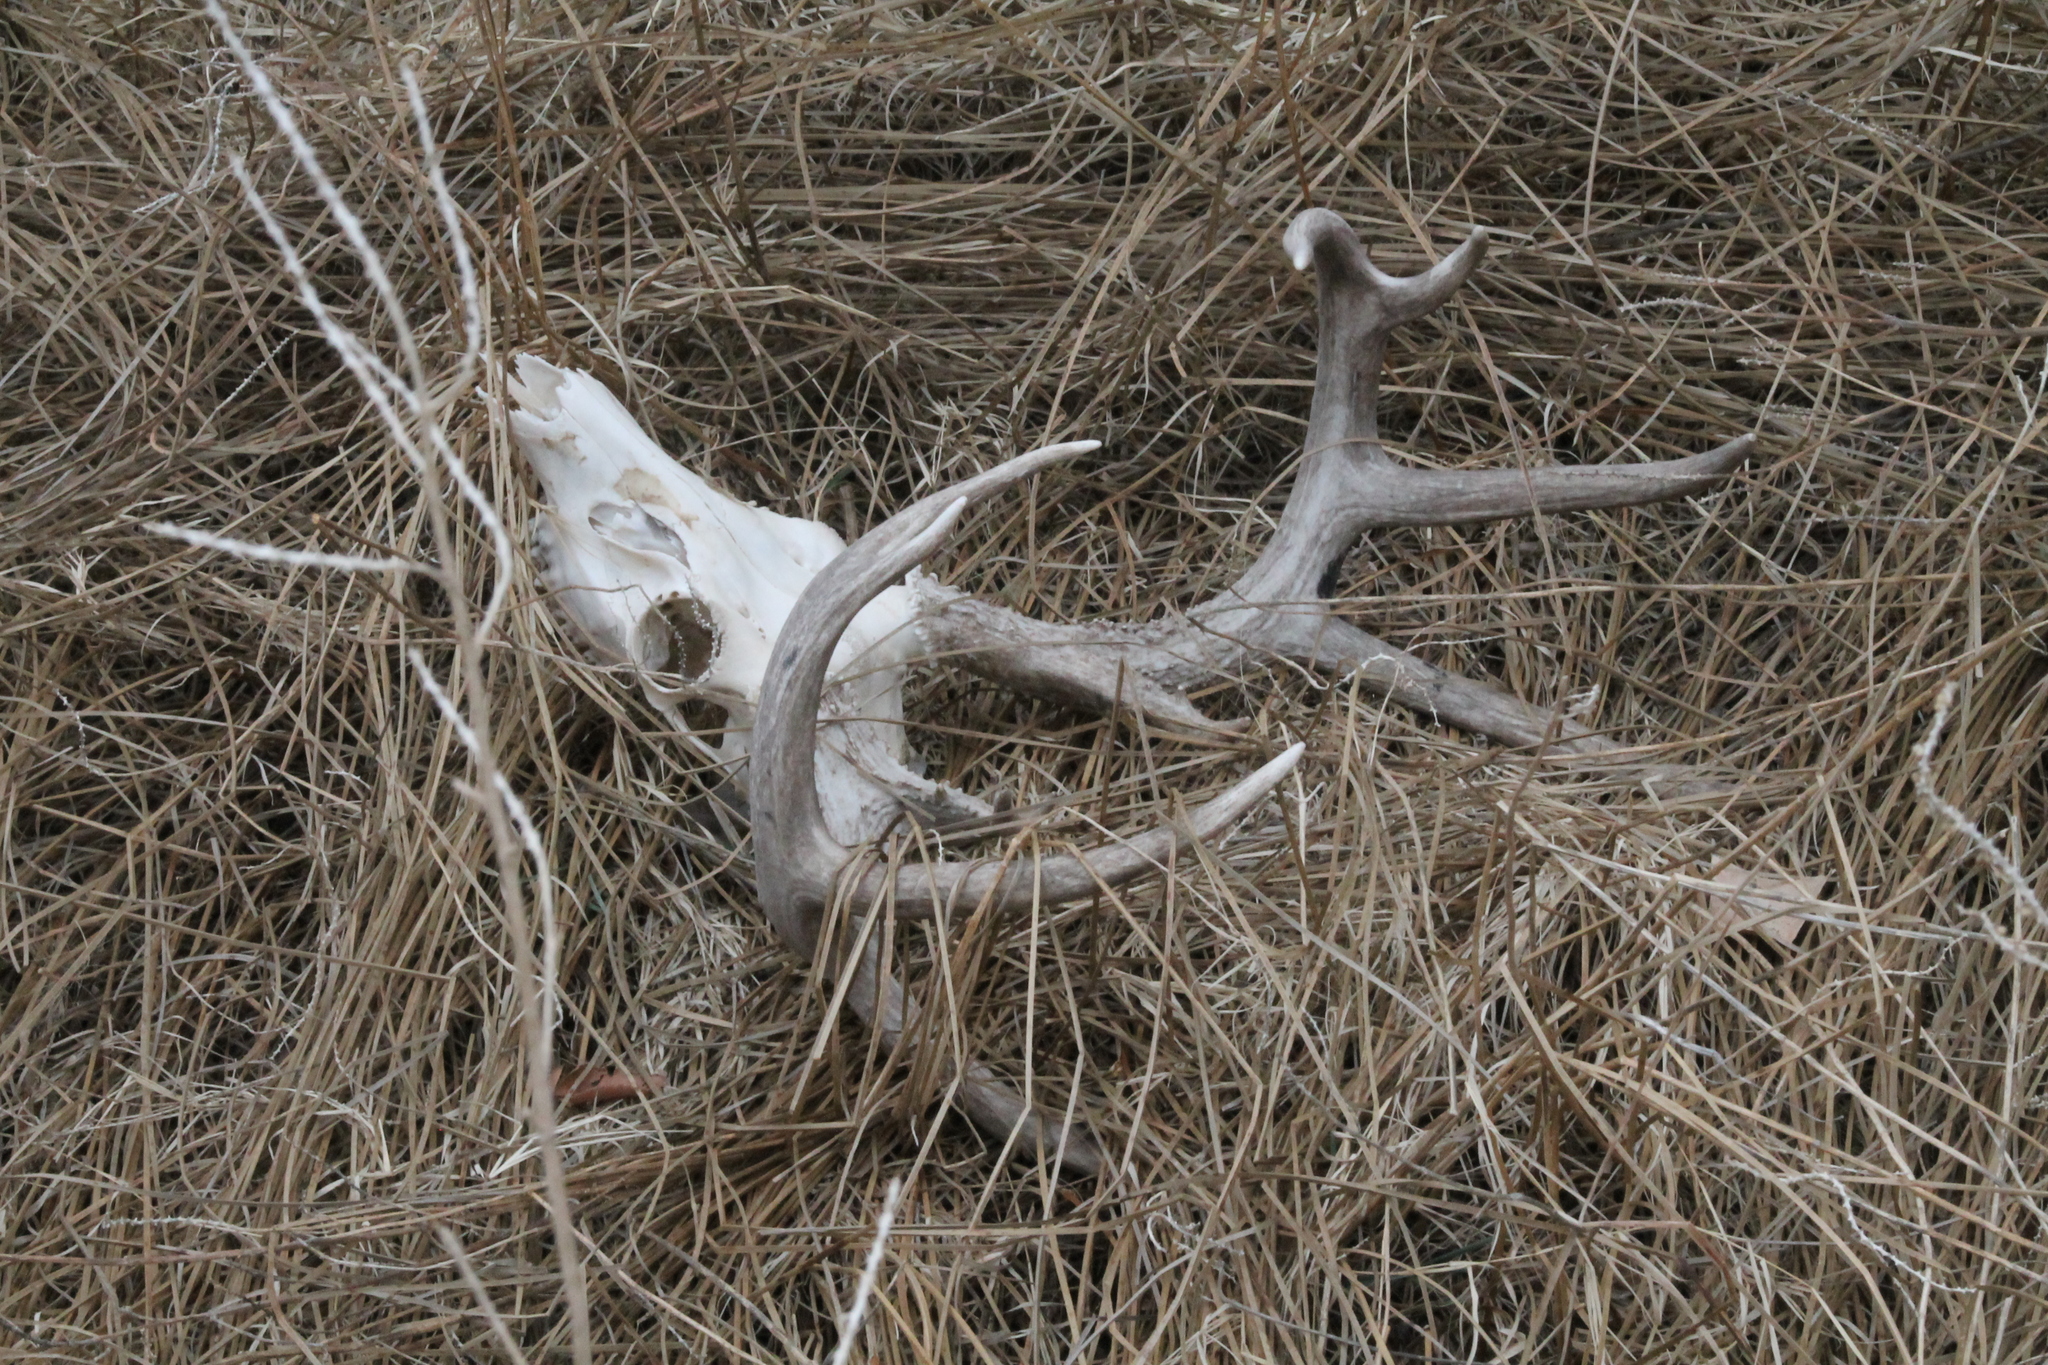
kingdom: Animalia
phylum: Chordata
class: Mammalia
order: Artiodactyla
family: Cervidae
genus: Odocoileus
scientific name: Odocoileus virginianus
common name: White-tailed deer
